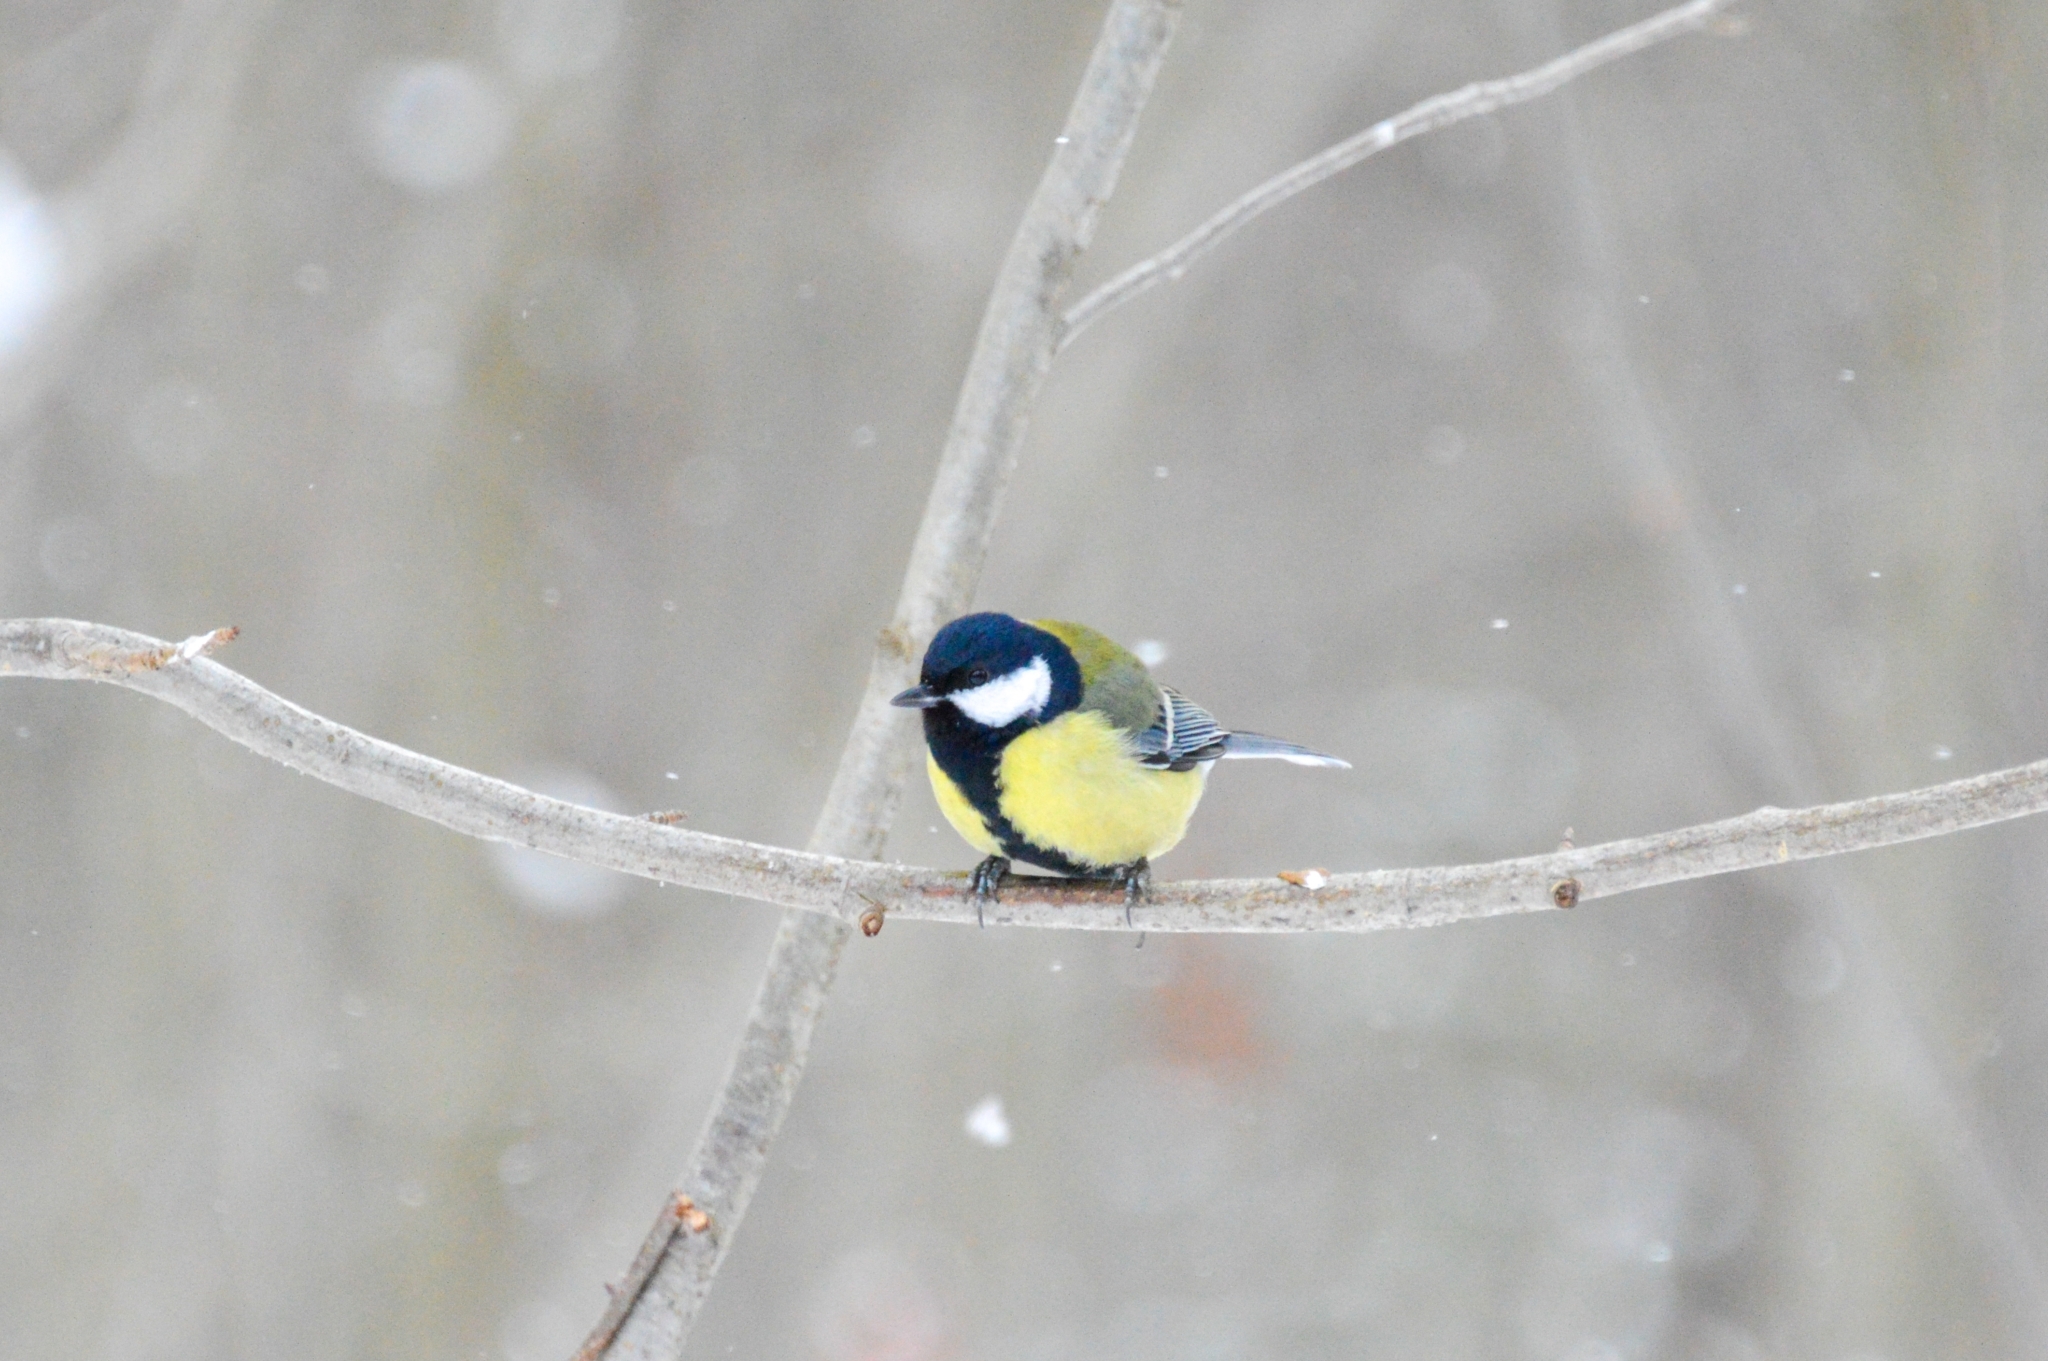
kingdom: Animalia
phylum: Chordata
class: Aves
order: Passeriformes
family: Paridae
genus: Parus
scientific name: Parus major
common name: Great tit
